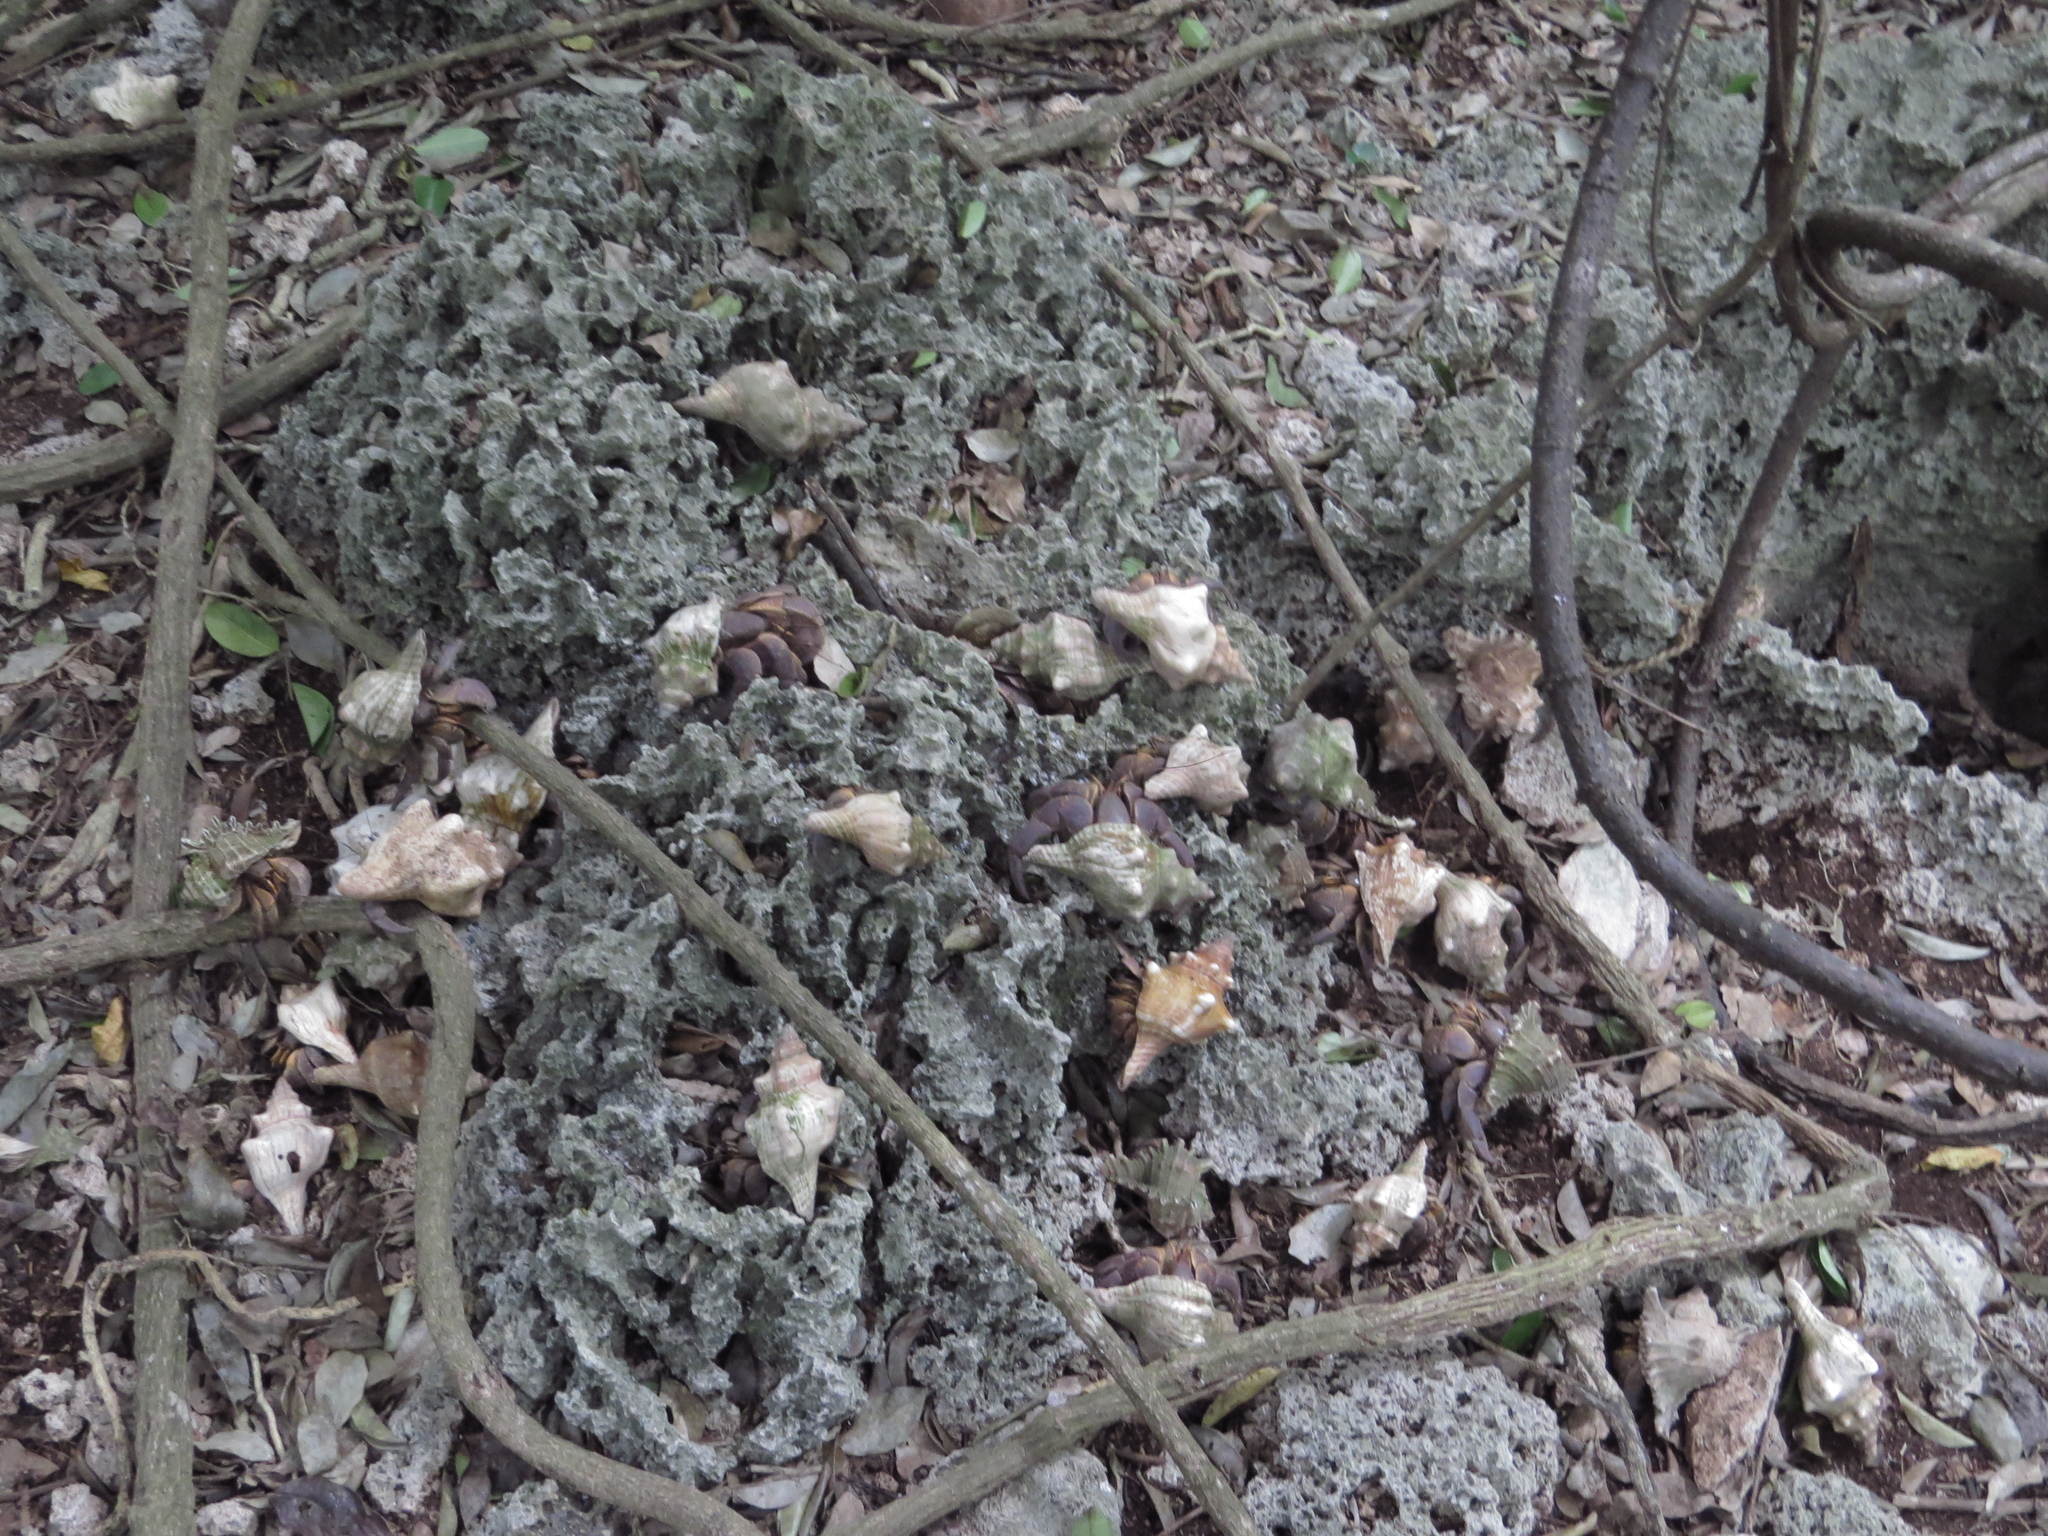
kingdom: Animalia
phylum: Arthropoda
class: Malacostraca
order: Decapoda
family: Coenobitidae
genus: Coenobita
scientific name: Coenobita brevimanus
